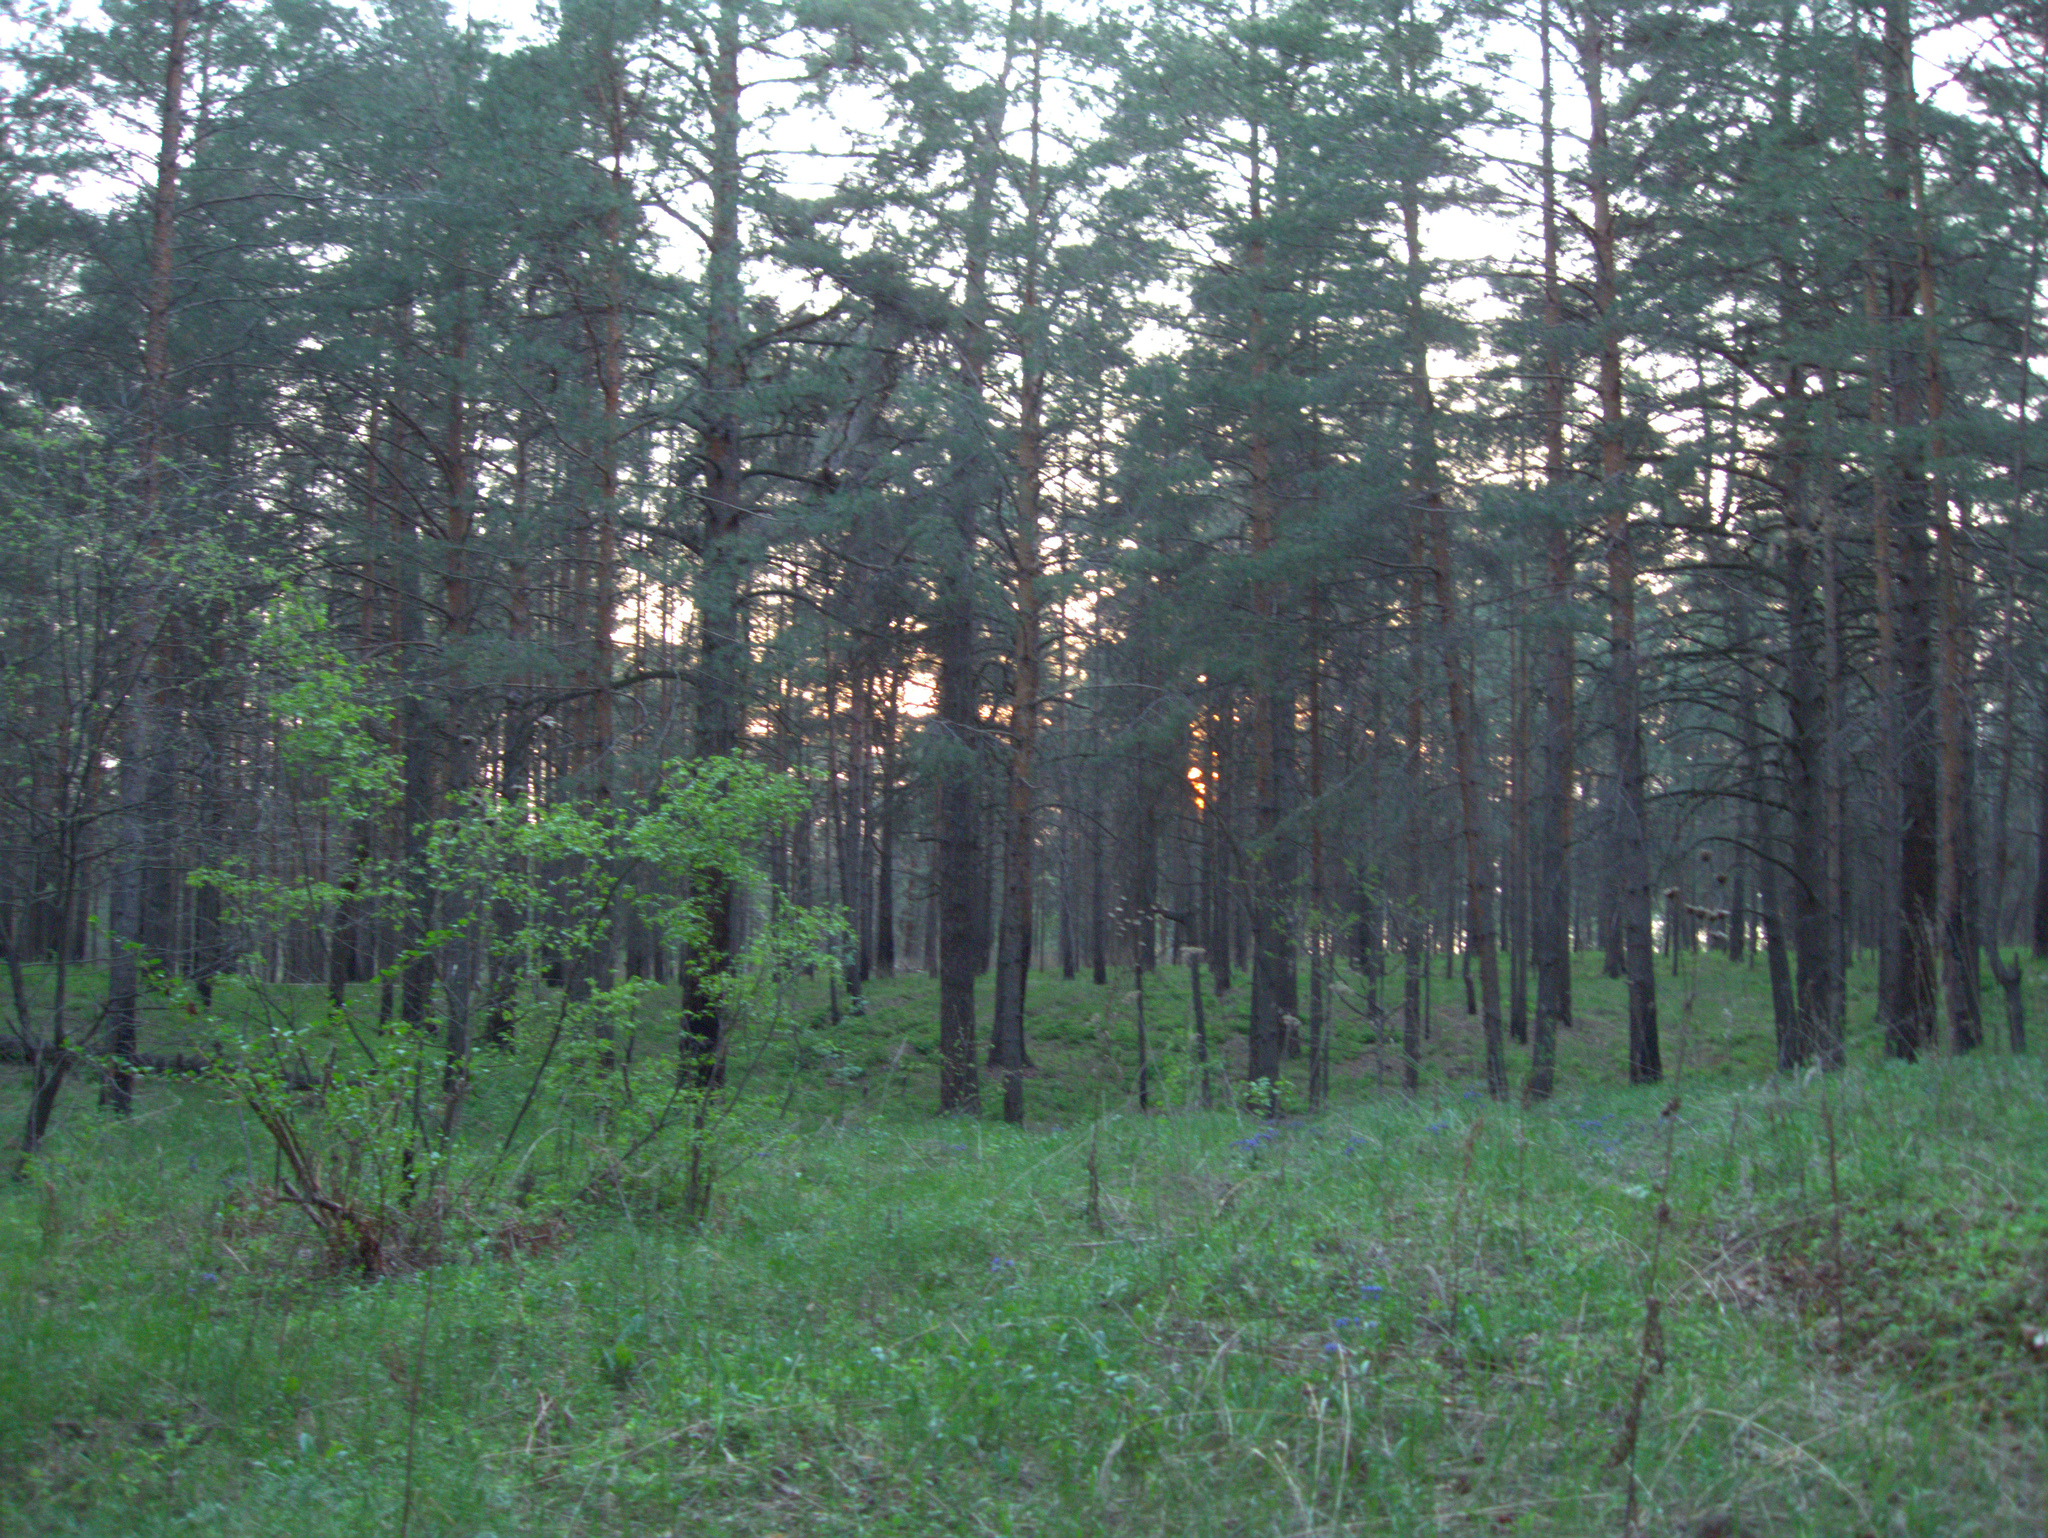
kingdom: Plantae
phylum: Tracheophyta
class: Pinopsida
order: Pinales
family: Pinaceae
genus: Pinus
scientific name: Pinus sylvestris
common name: Scots pine
